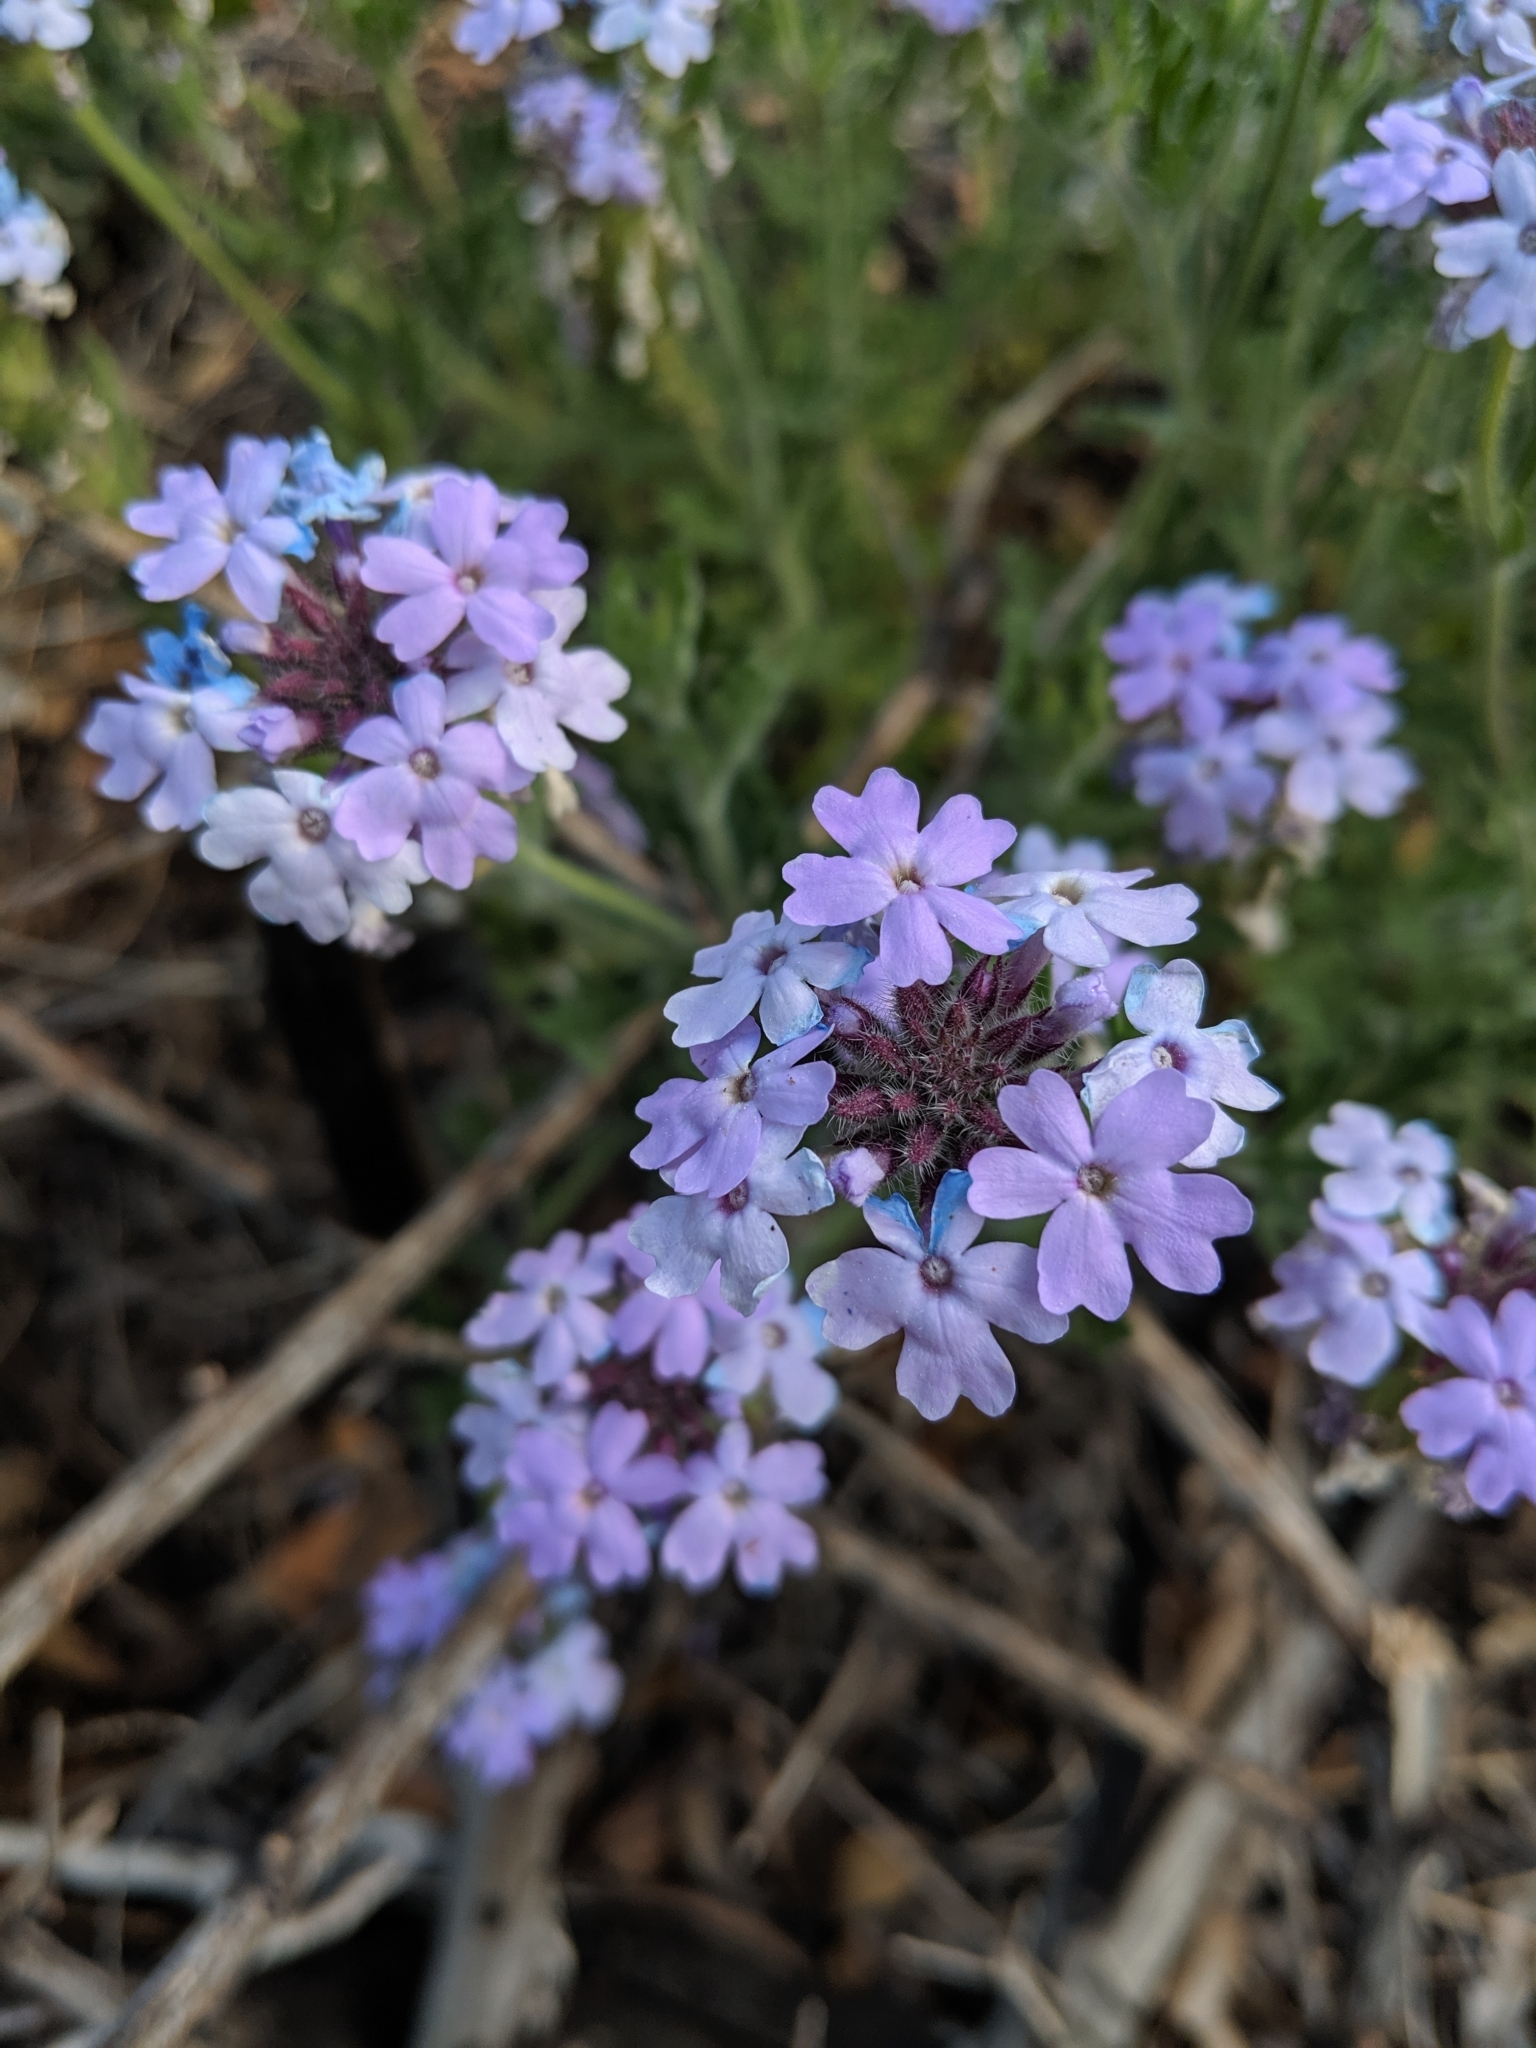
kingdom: Plantae
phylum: Tracheophyta
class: Magnoliopsida
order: Lamiales
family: Verbenaceae
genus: Verbena
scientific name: Verbena gooddingii
